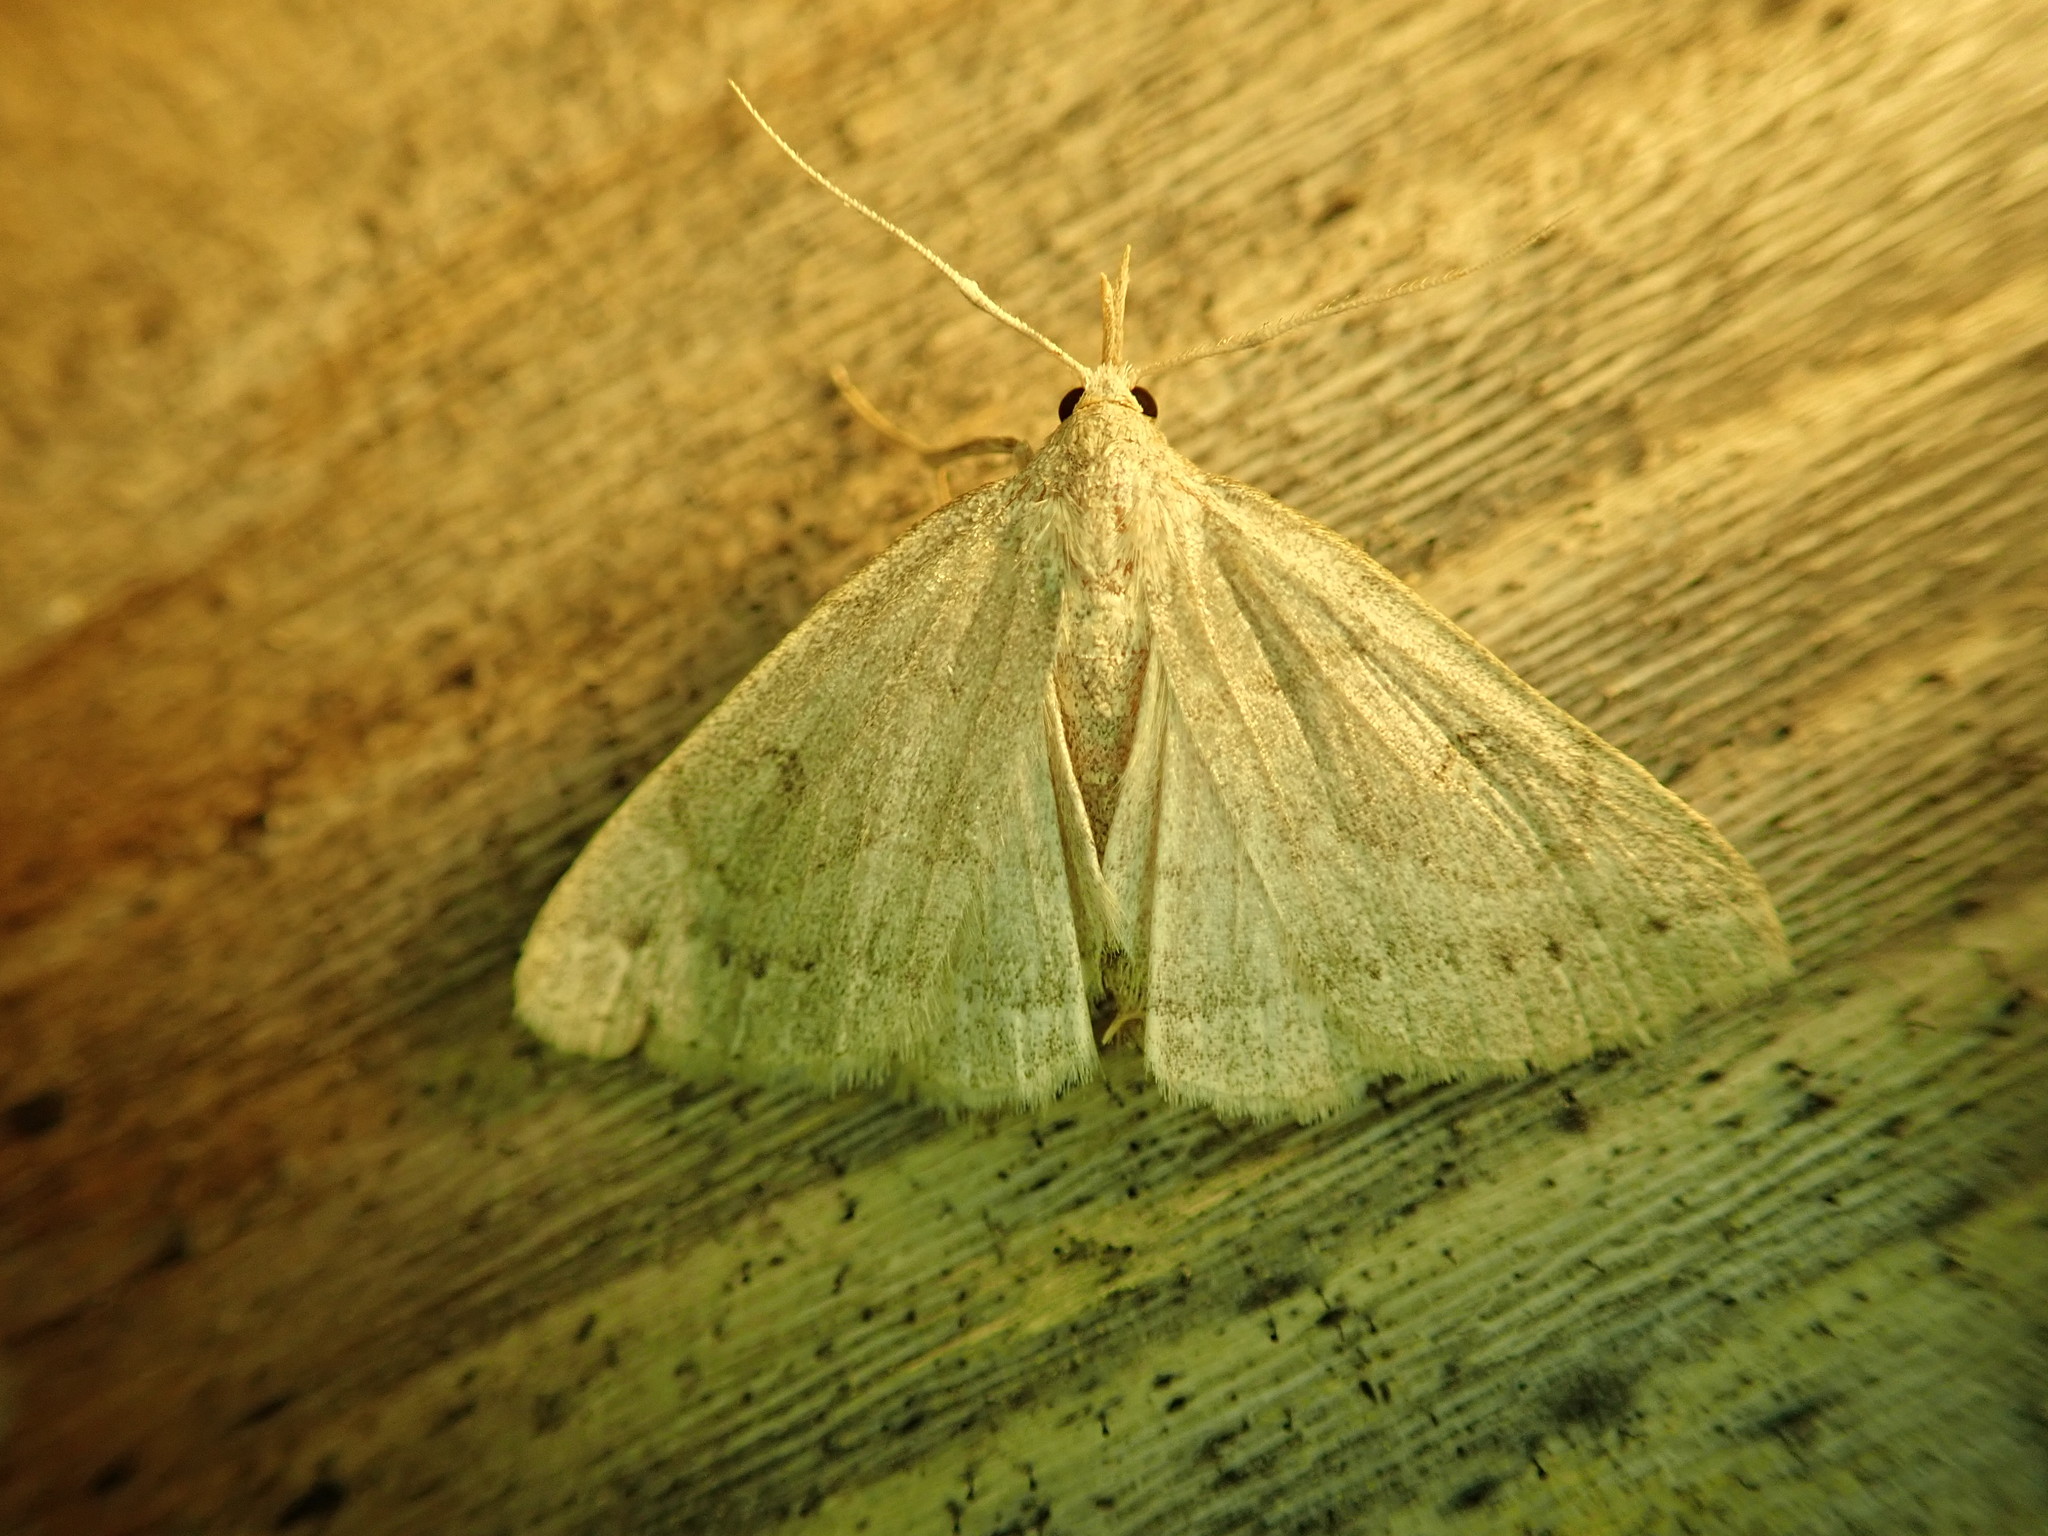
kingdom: Animalia
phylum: Arthropoda
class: Insecta
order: Lepidoptera
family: Erebidae
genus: Macrochilo
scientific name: Macrochilo morbidalis
